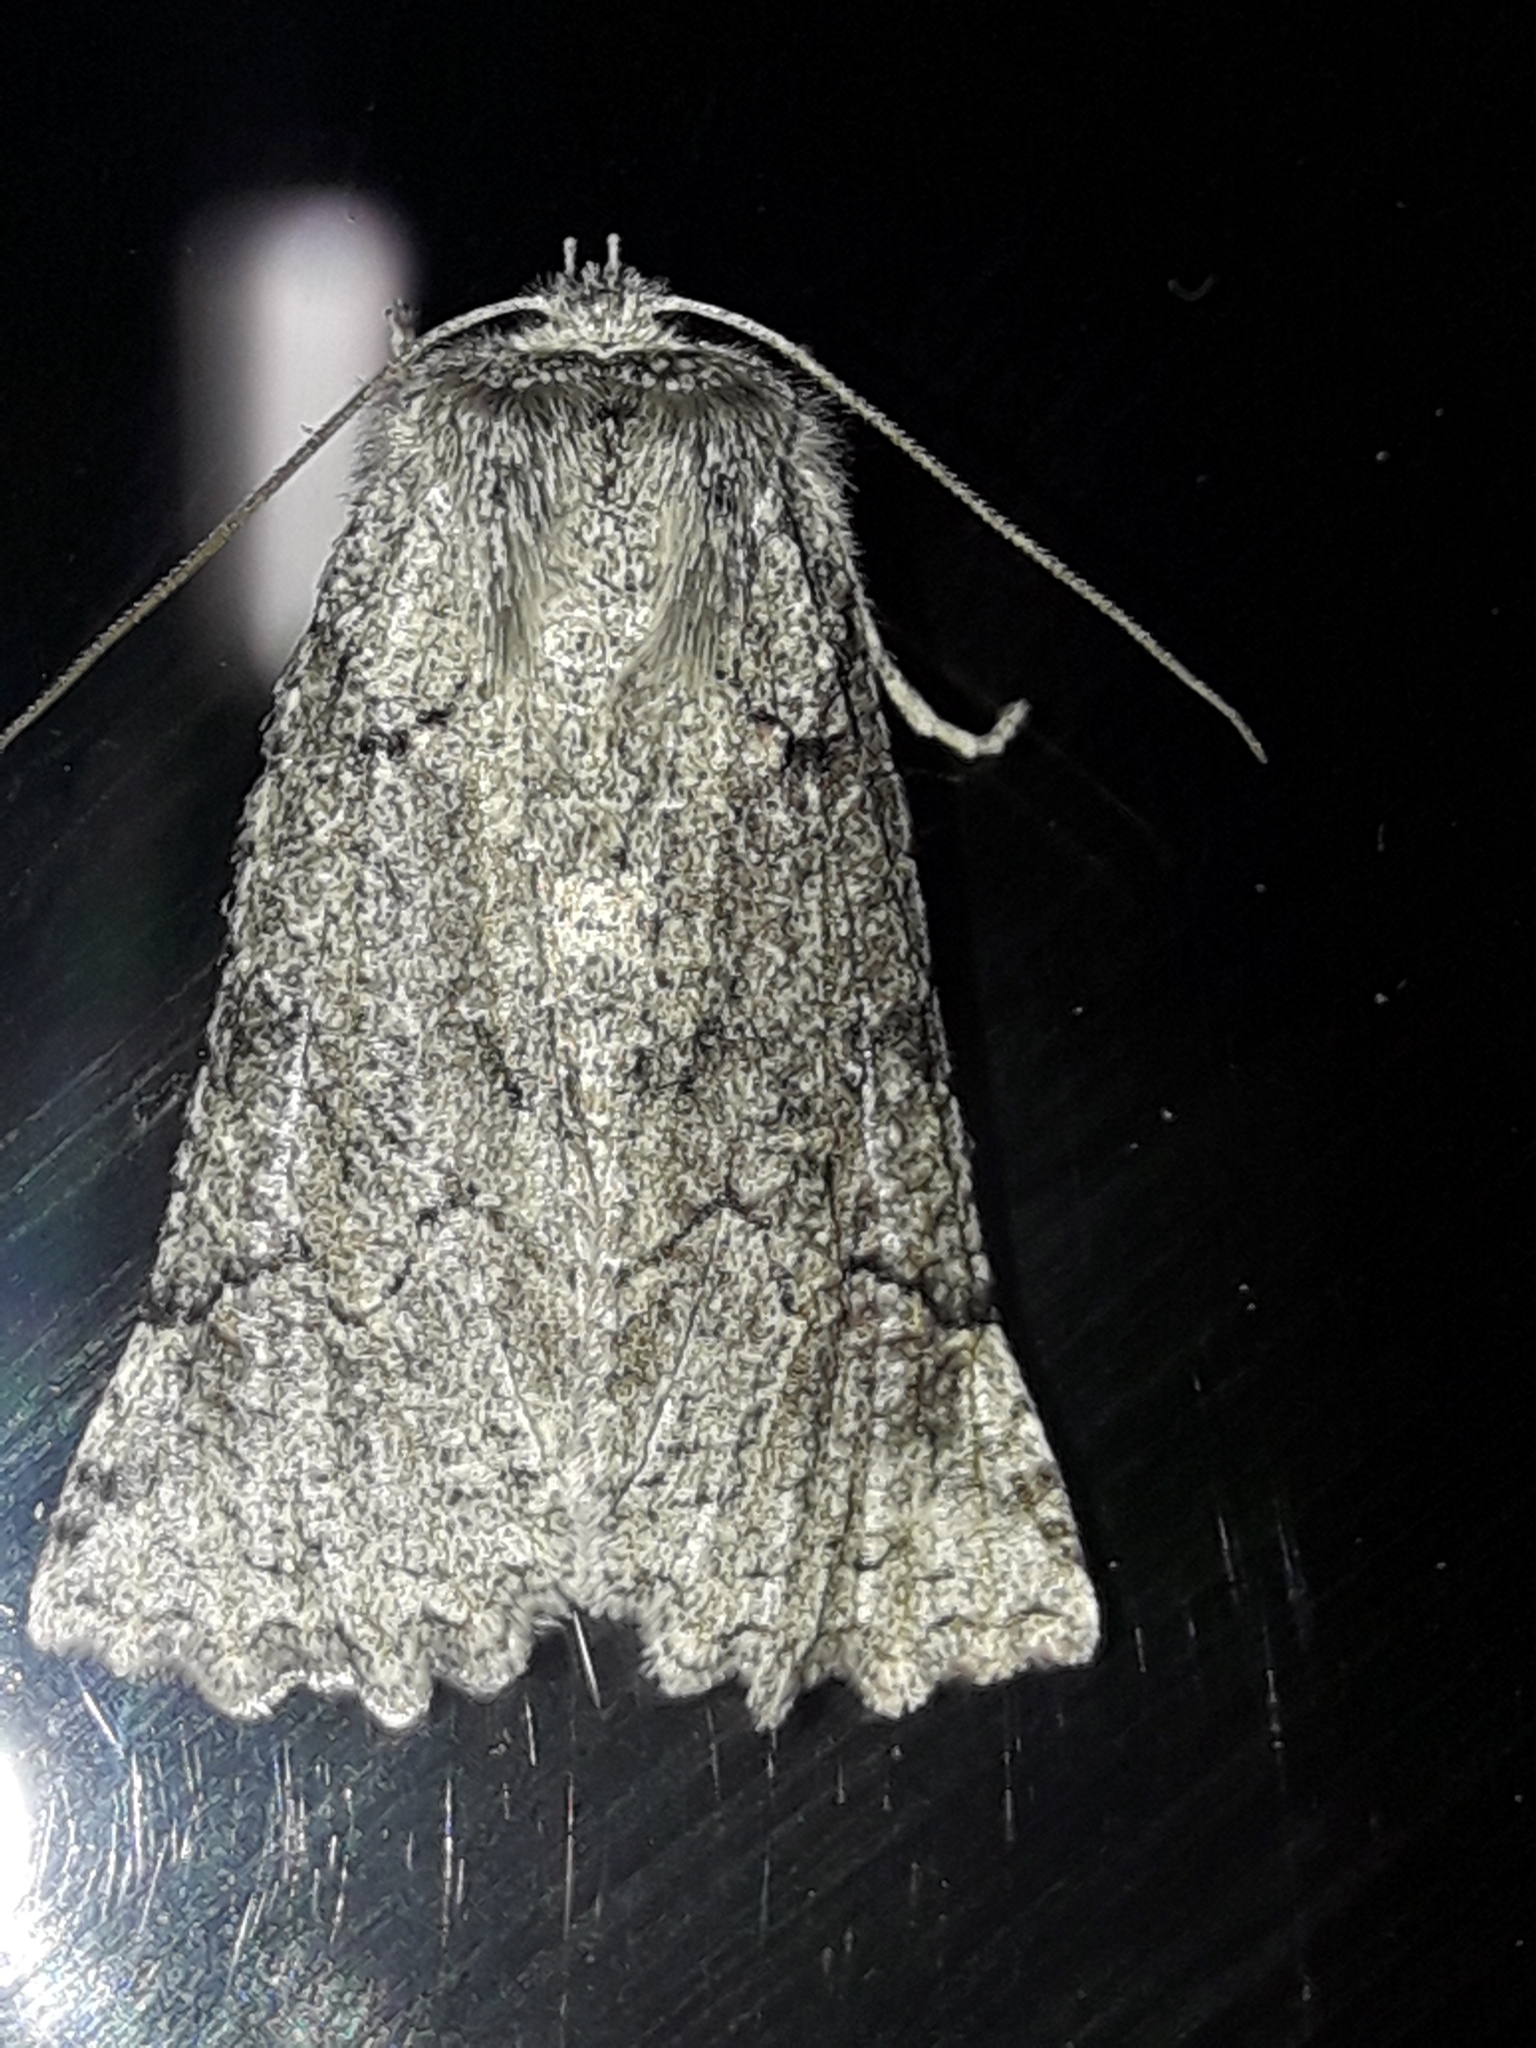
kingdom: Animalia
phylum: Arthropoda
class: Insecta
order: Lepidoptera
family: Geometridae
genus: Declana
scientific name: Declana floccosa
